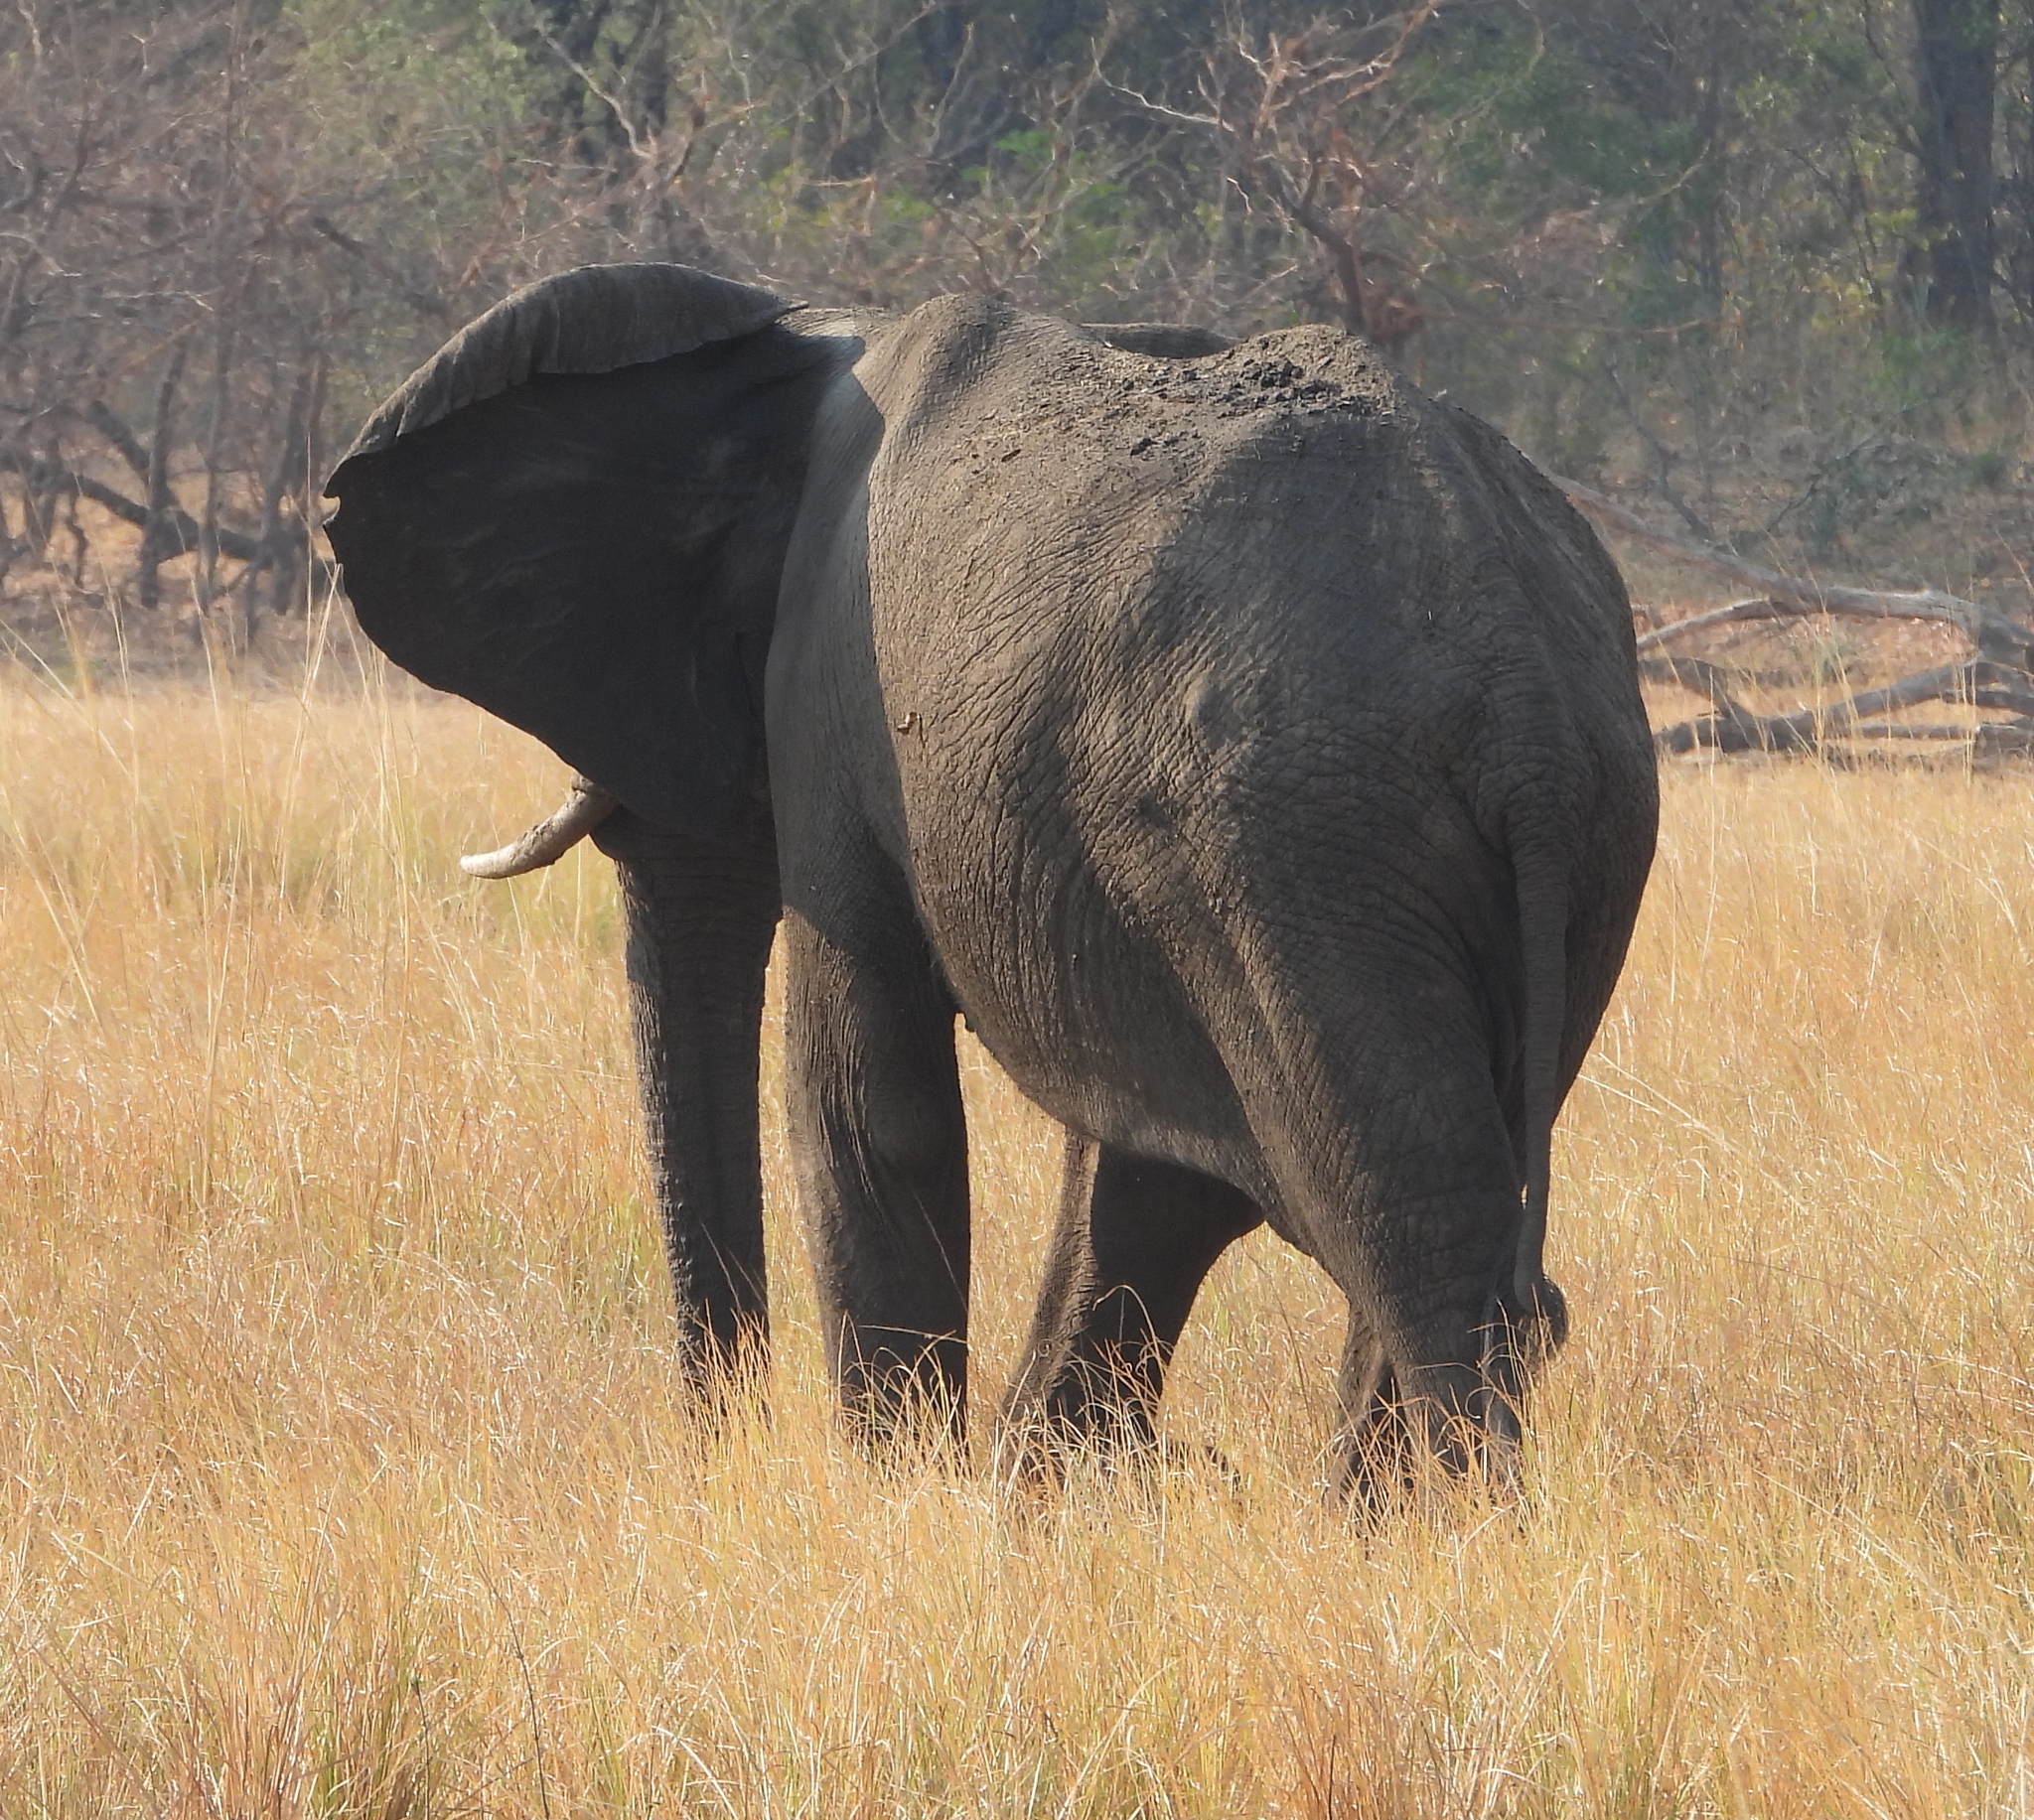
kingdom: Animalia
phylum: Chordata
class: Mammalia
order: Proboscidea
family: Elephantidae
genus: Loxodonta
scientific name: Loxodonta africana
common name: African elephant
